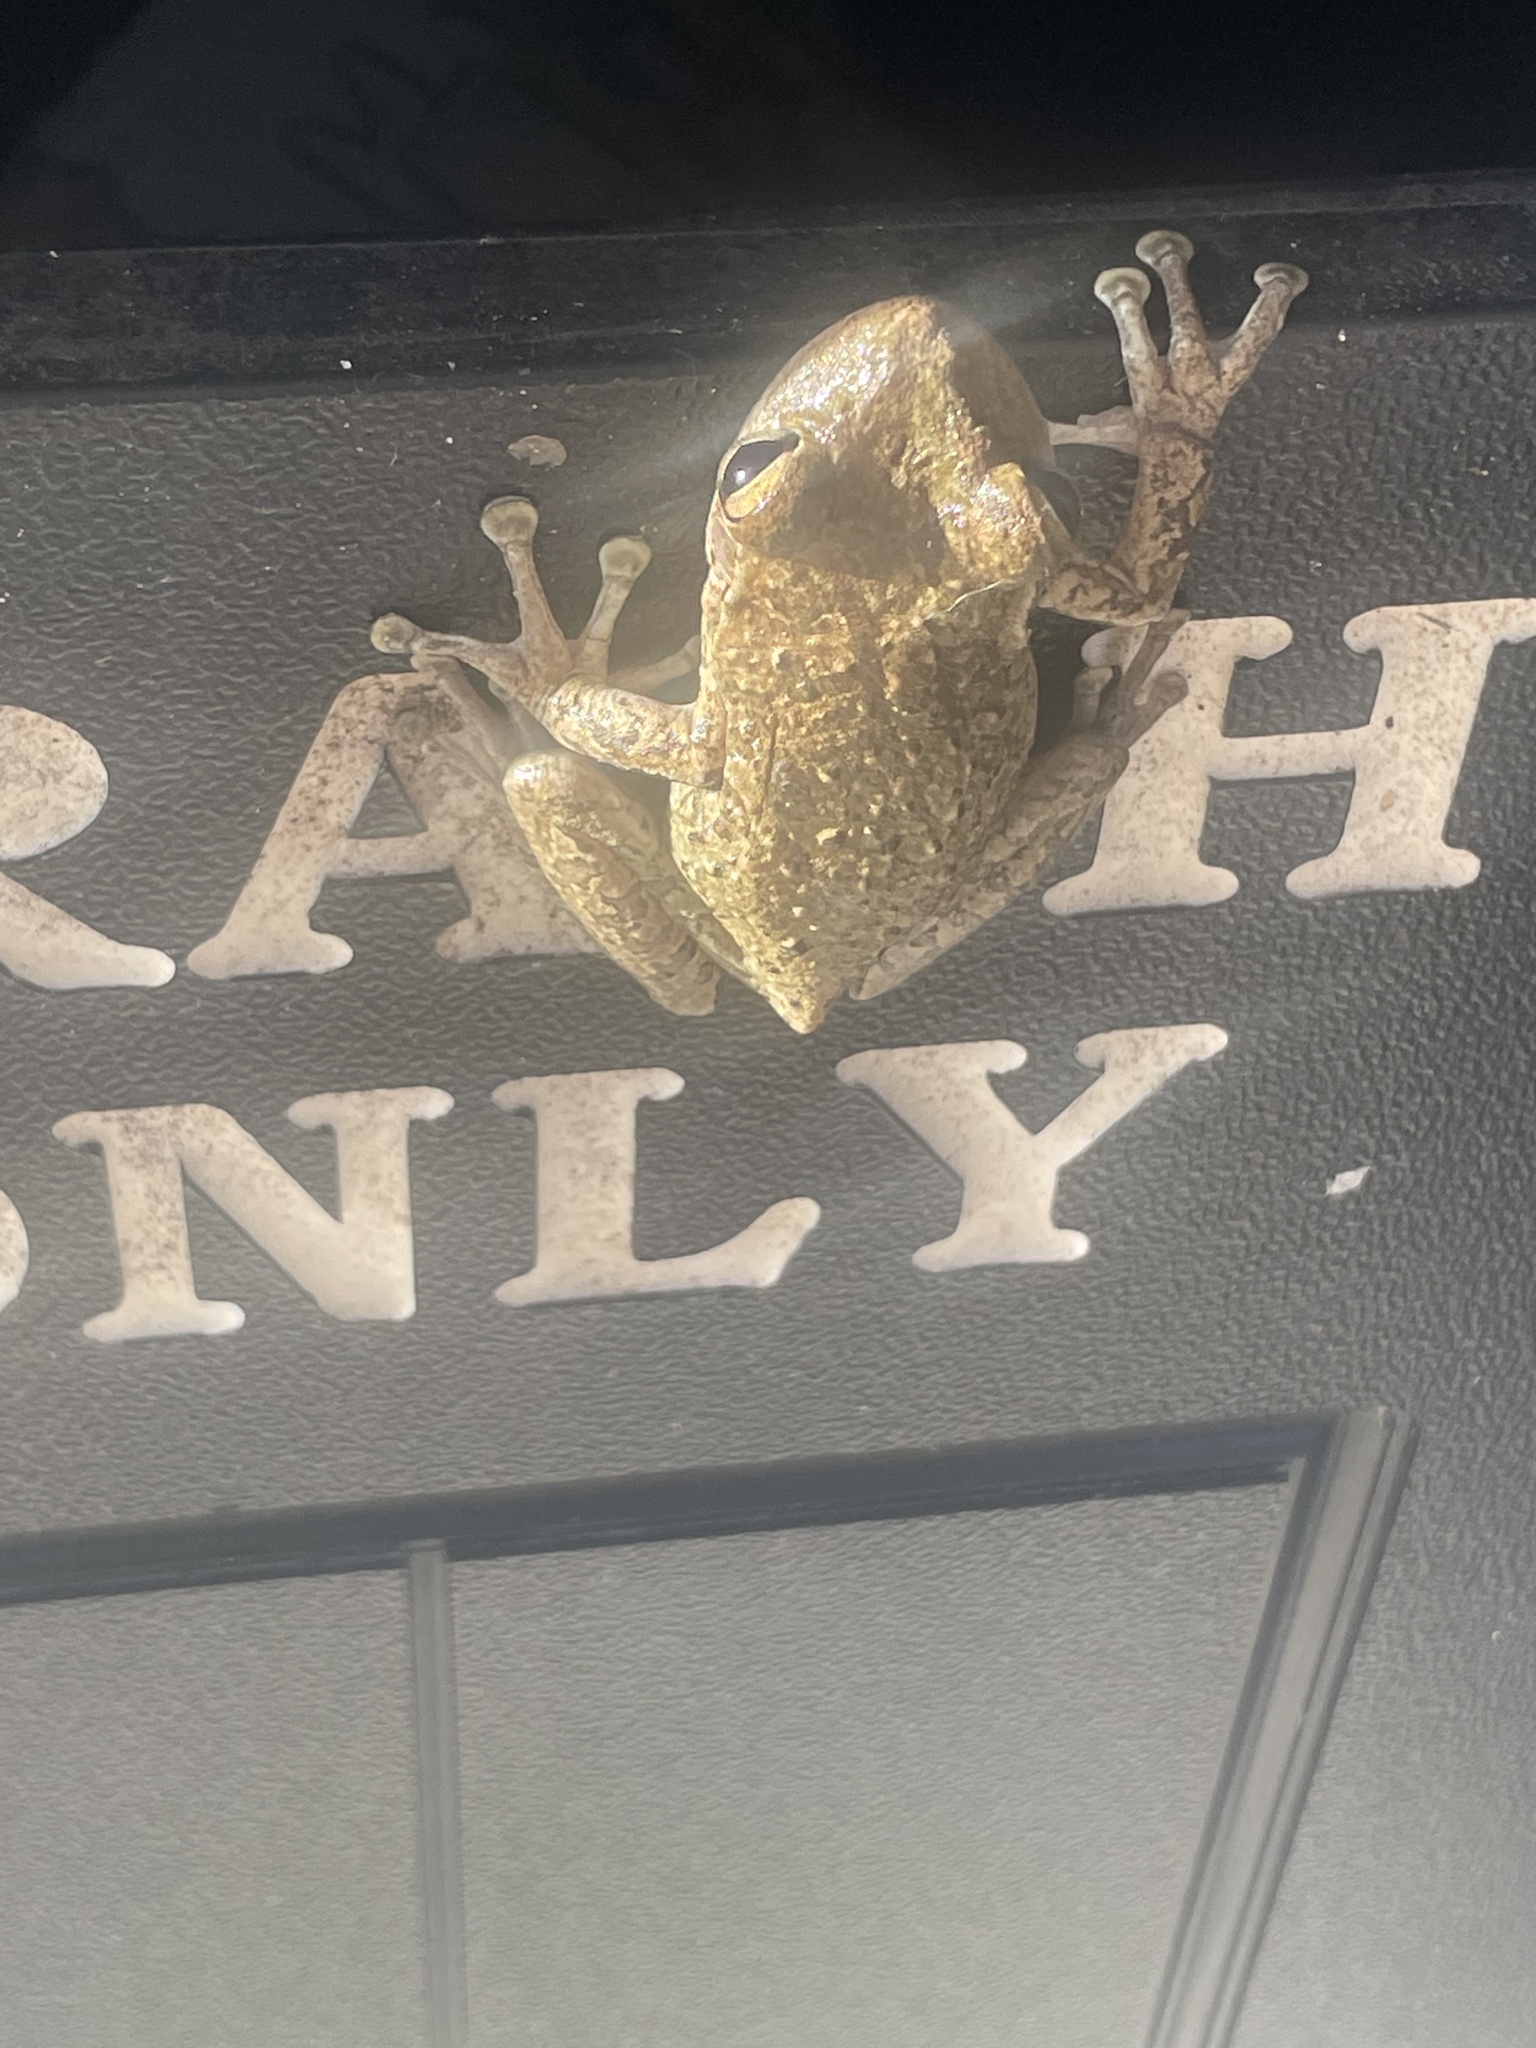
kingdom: Animalia
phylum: Chordata
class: Amphibia
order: Anura
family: Hylidae
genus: Osteopilus
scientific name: Osteopilus septentrionalis
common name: Cuban treefrog
